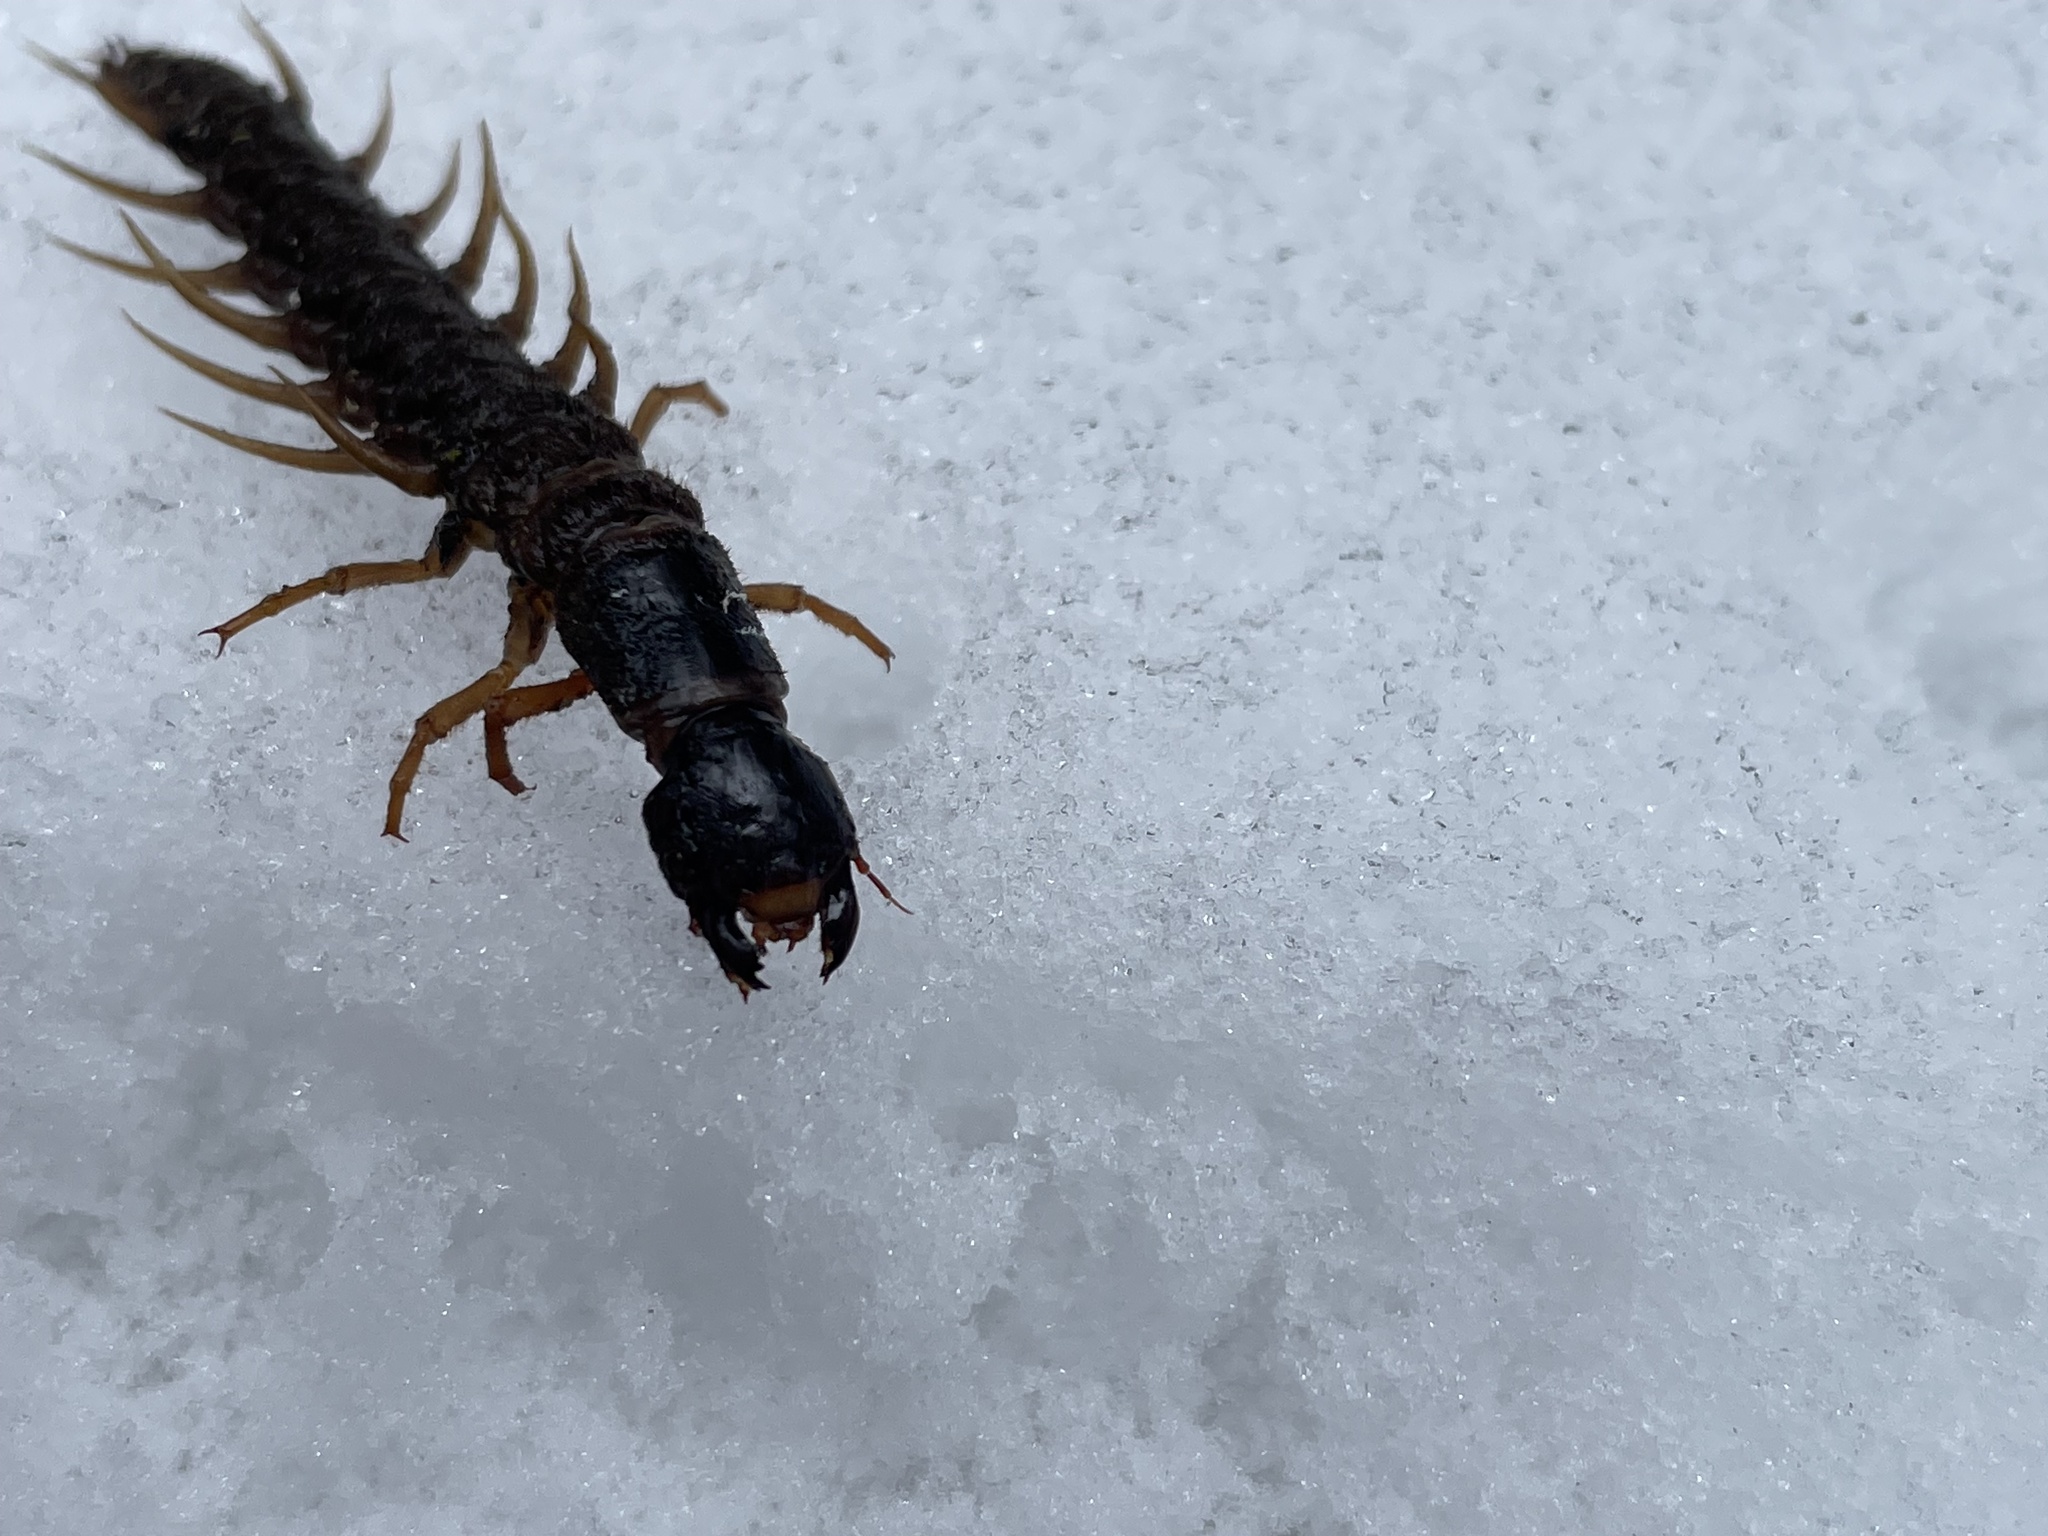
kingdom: Animalia
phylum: Arthropoda
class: Insecta
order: Megaloptera
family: Corydalidae
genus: Orohermes
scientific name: Orohermes crepusculus
